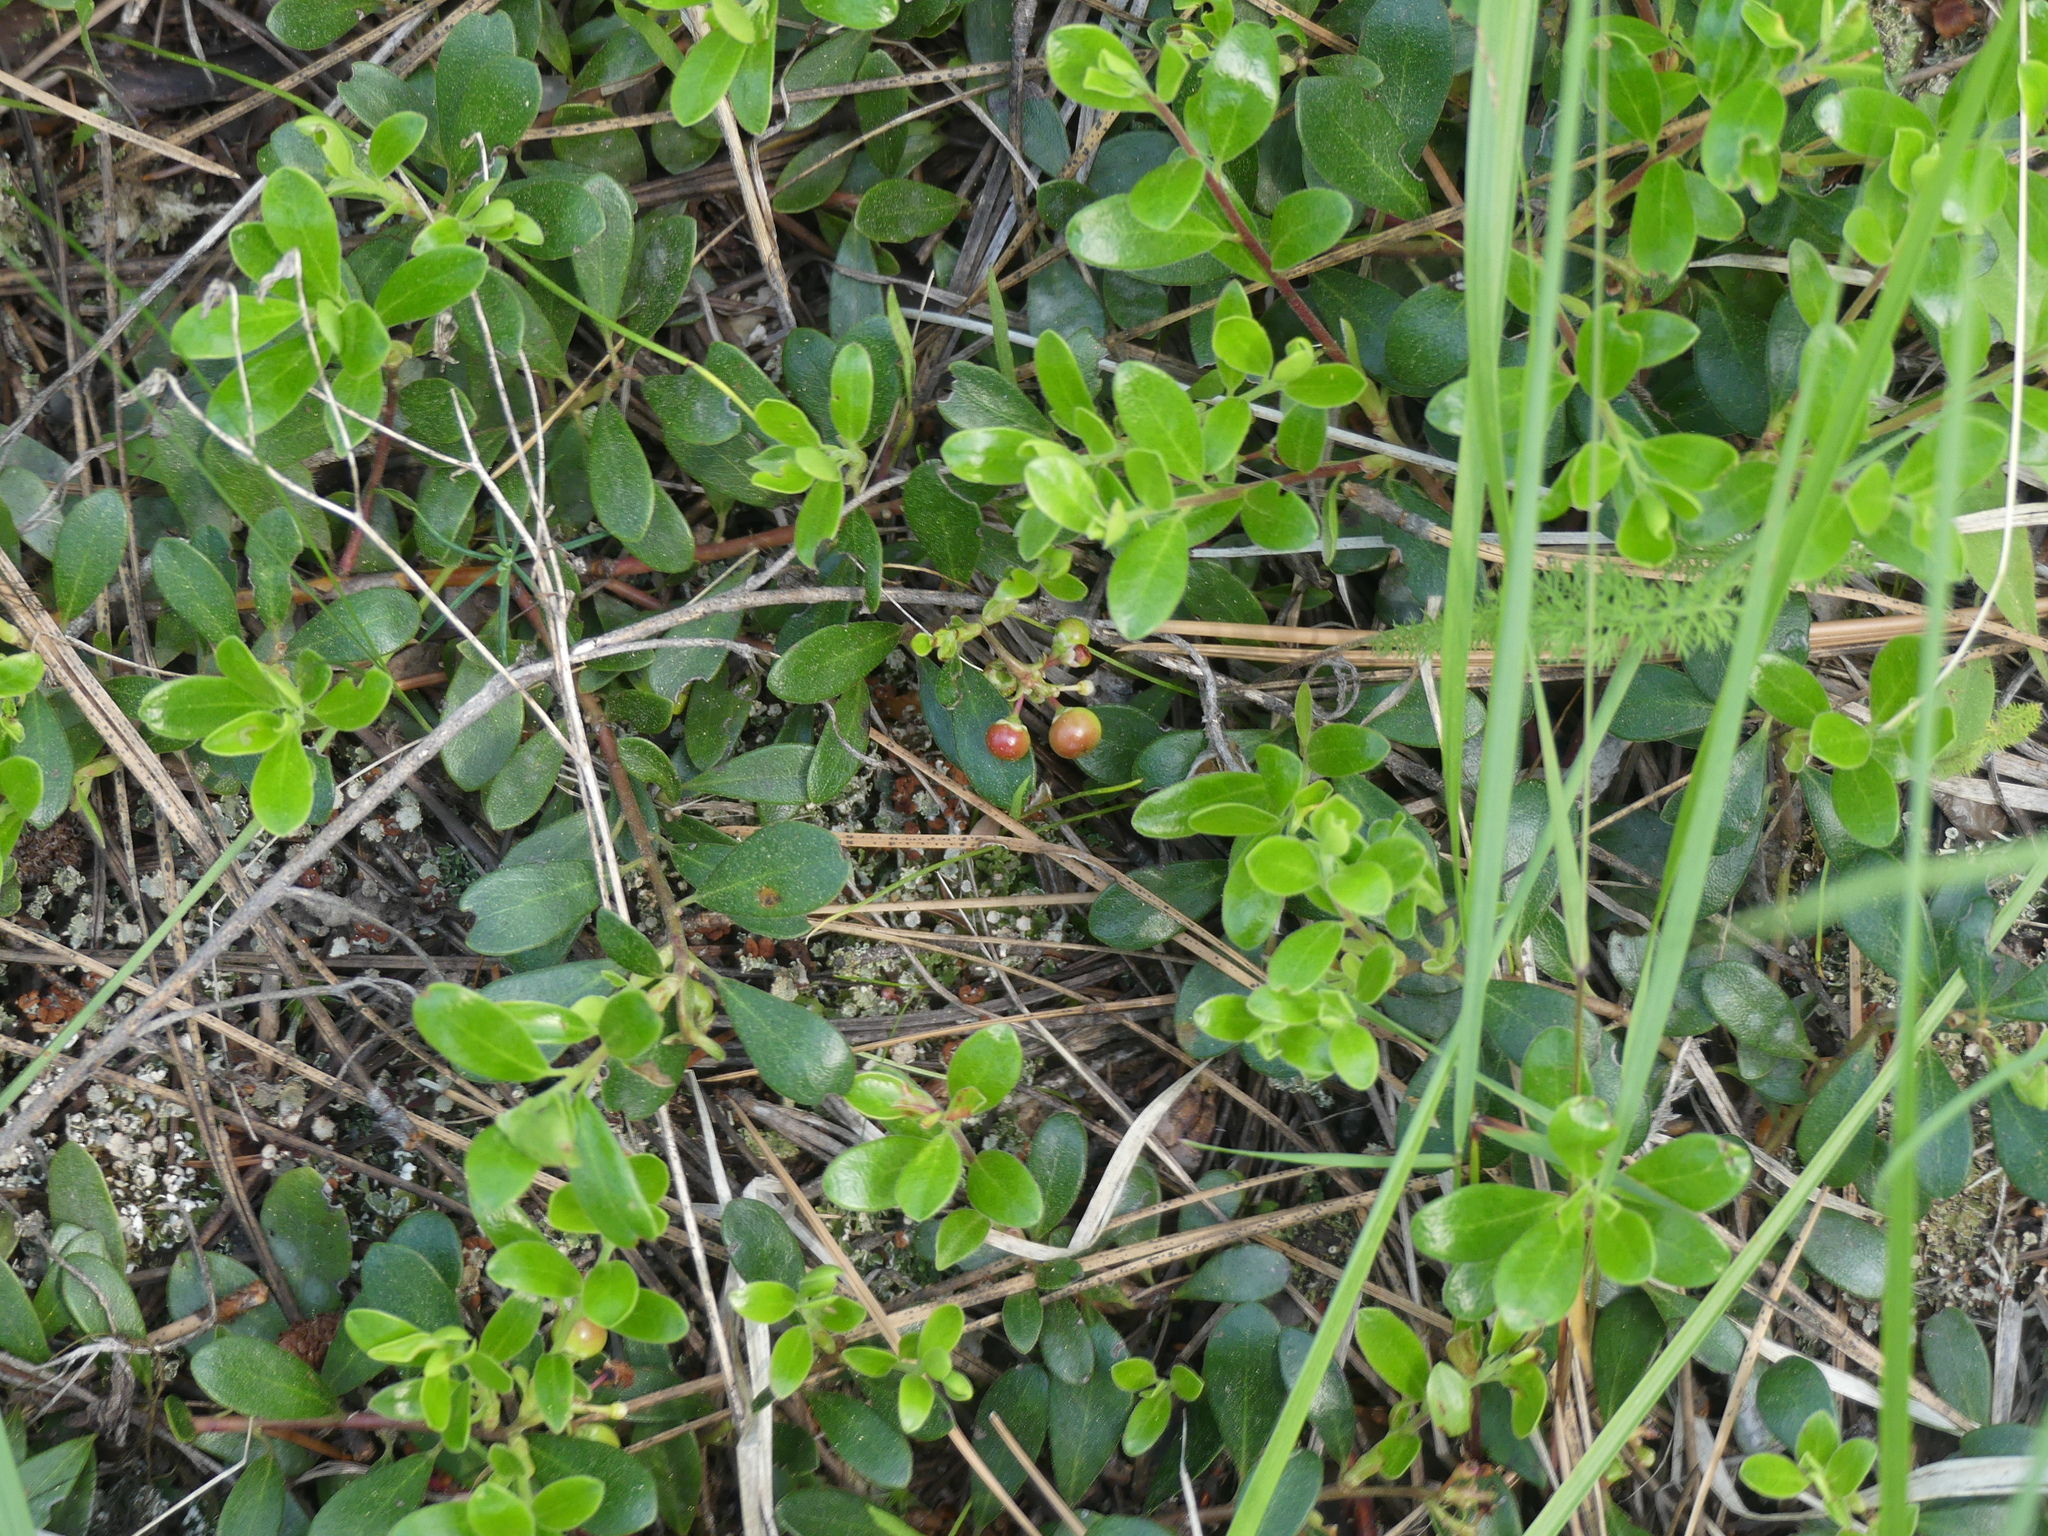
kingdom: Plantae
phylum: Tracheophyta
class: Magnoliopsida
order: Ericales
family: Ericaceae
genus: Arctostaphylos
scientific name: Arctostaphylos uva-ursi
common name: Bearberry
